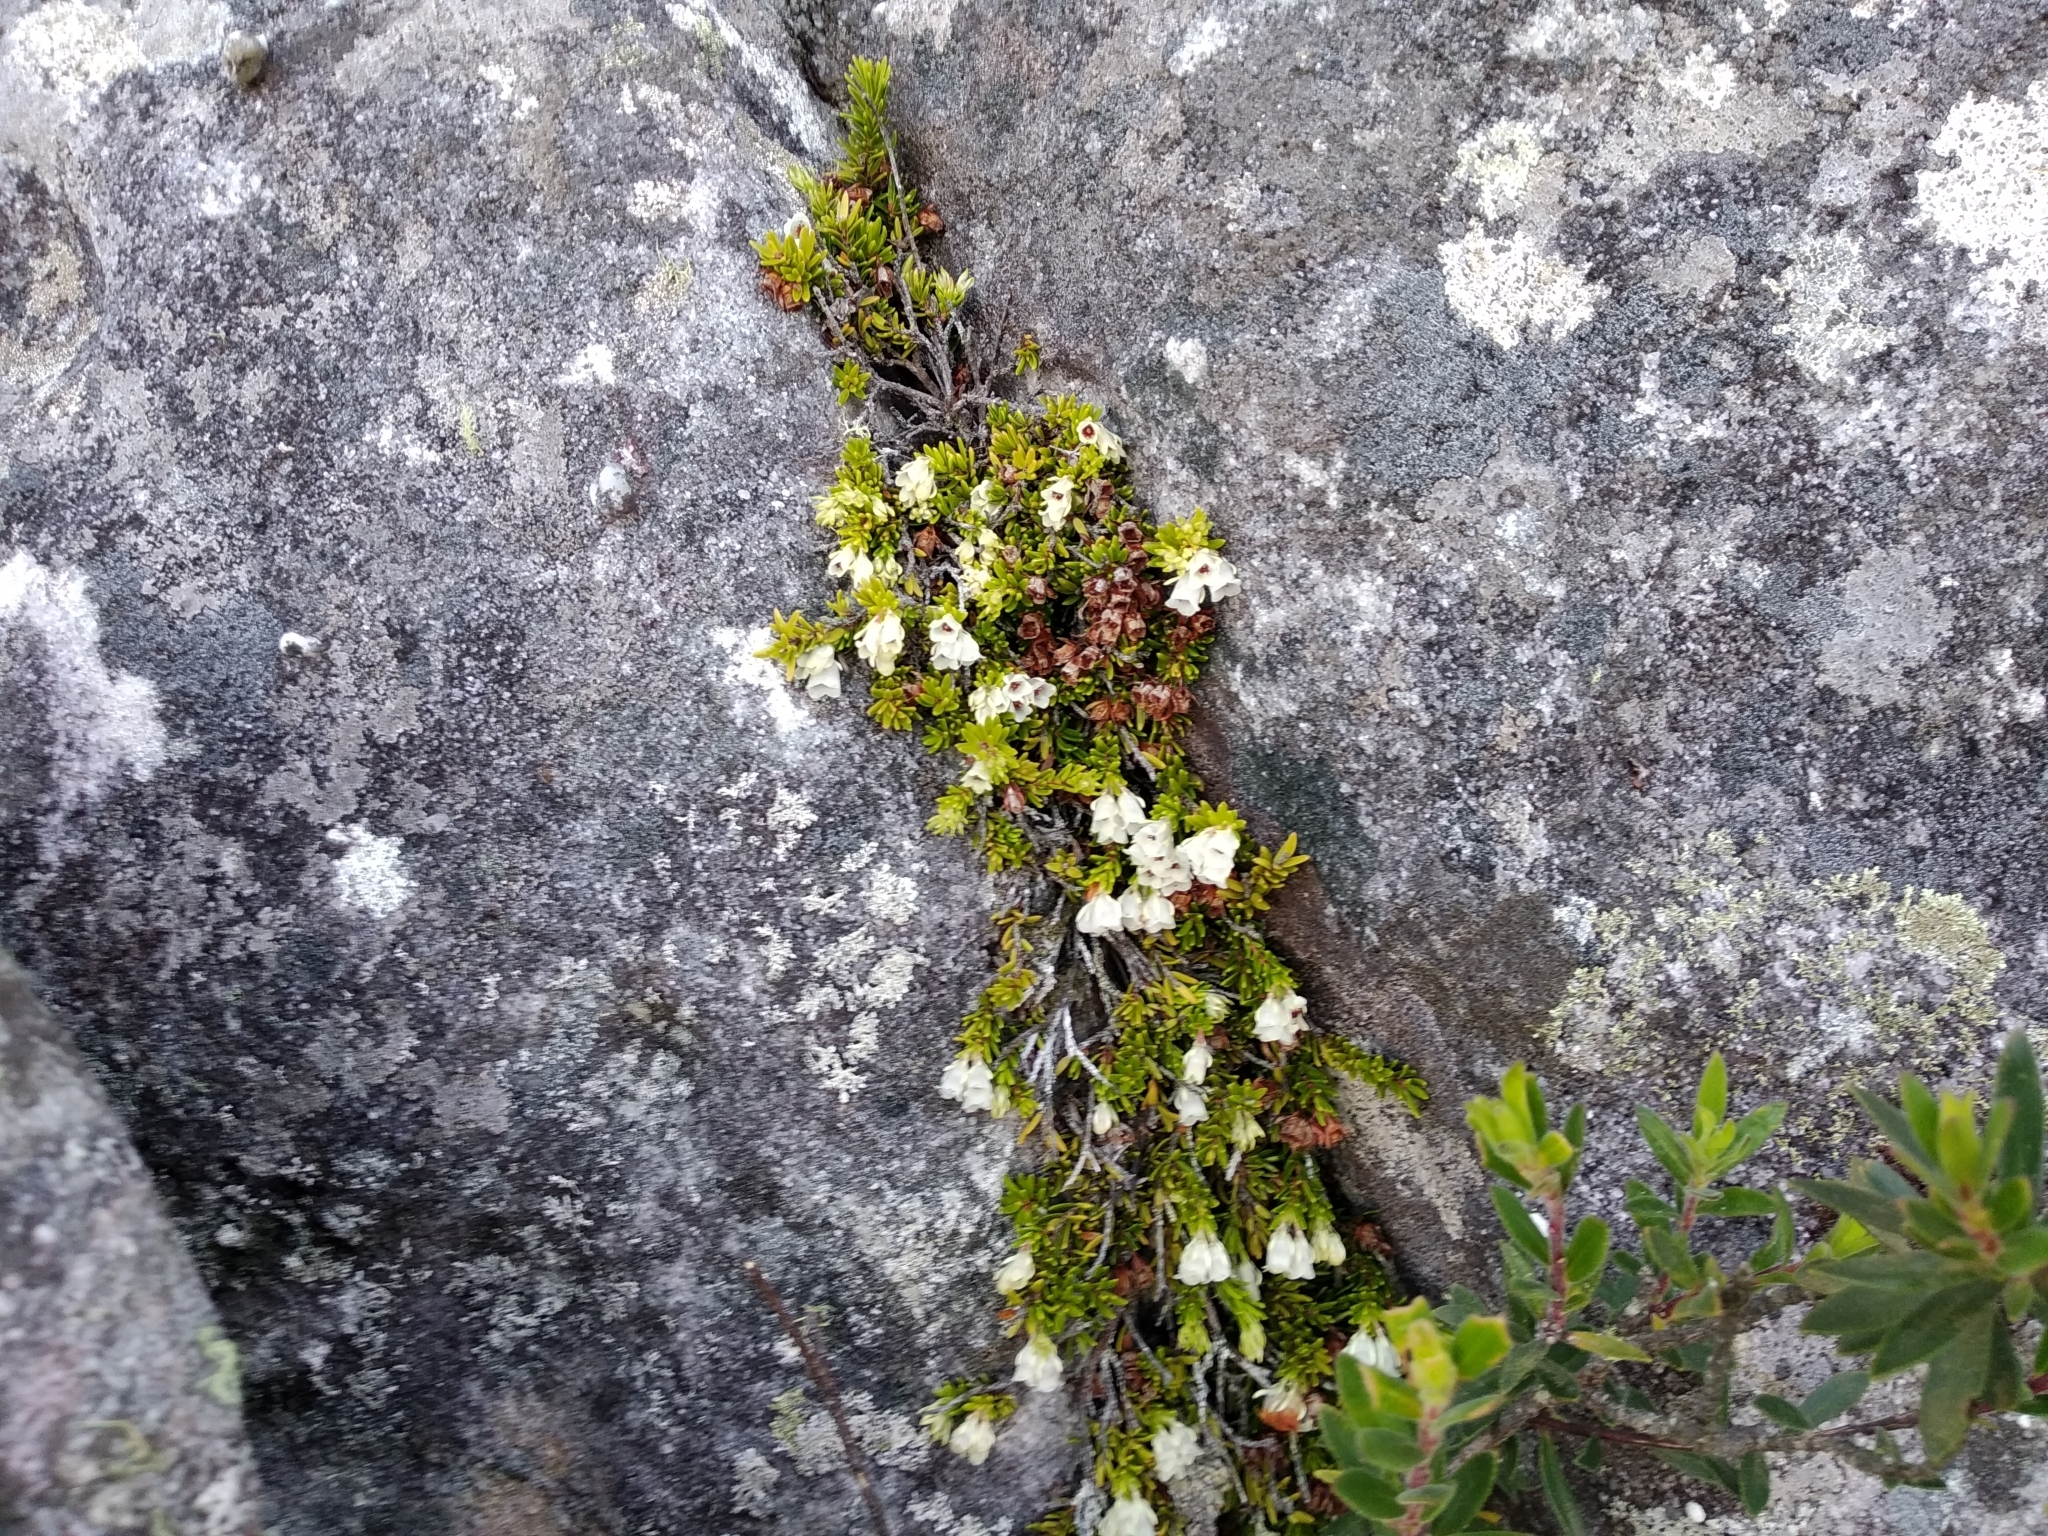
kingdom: Plantae
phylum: Tracheophyta
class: Magnoliopsida
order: Ericales
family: Ericaceae
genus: Erica
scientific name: Erica depressa
